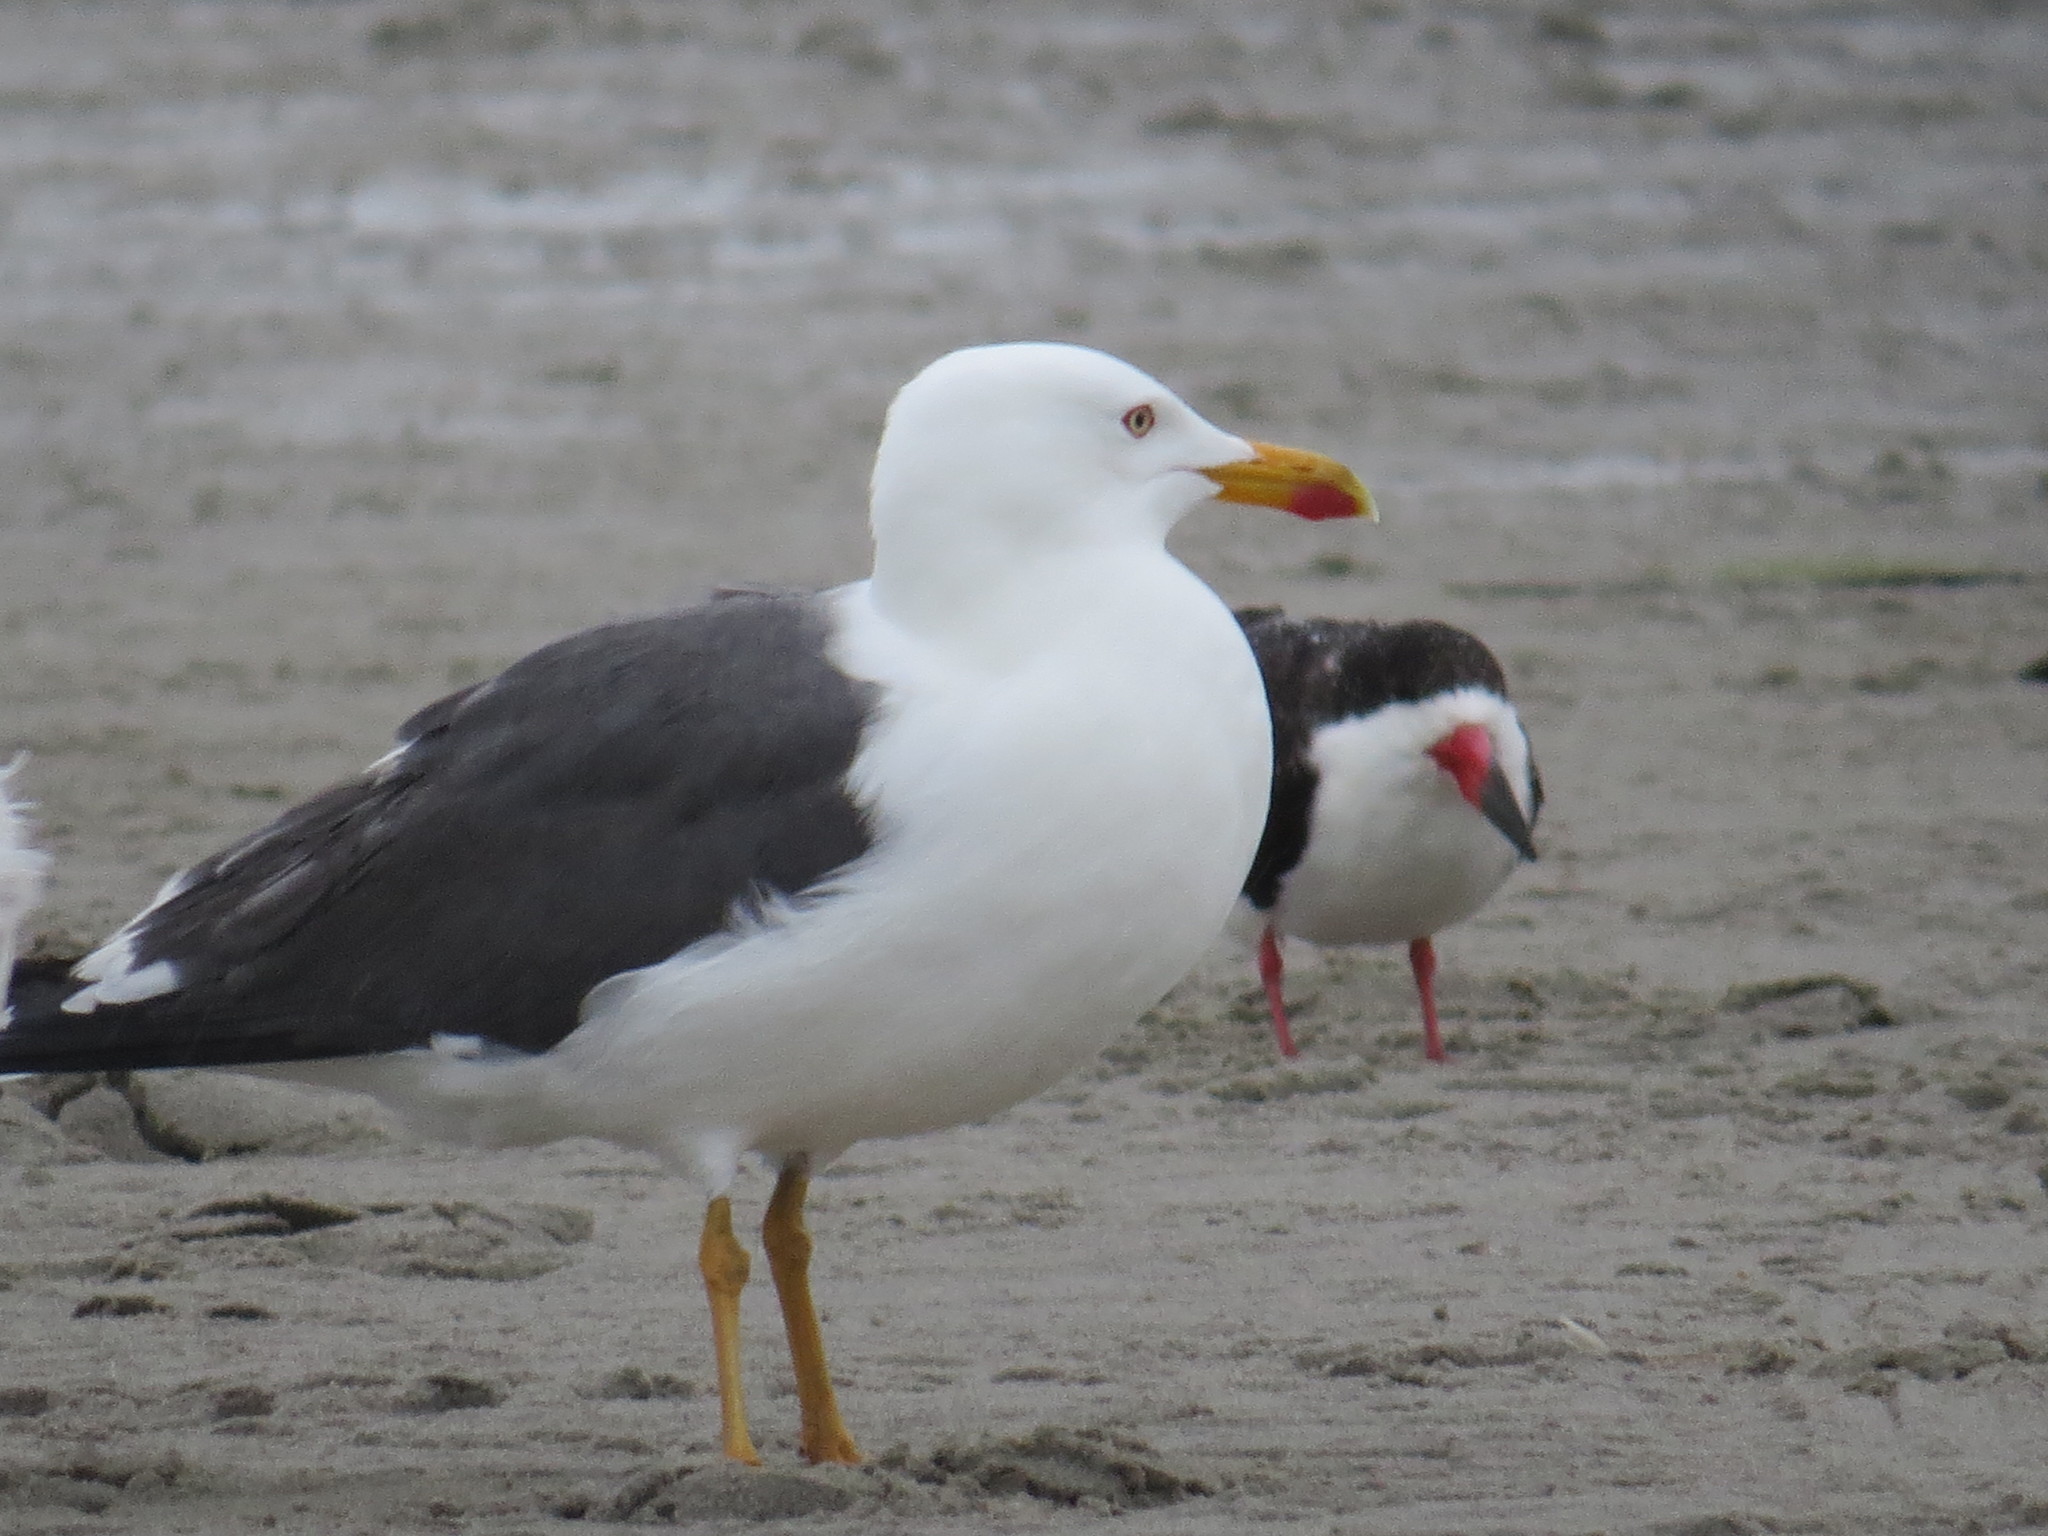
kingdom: Animalia
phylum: Chordata
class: Aves
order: Charadriiformes
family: Laridae
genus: Larus
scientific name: Larus fuscus
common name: Lesser black-backed gull
